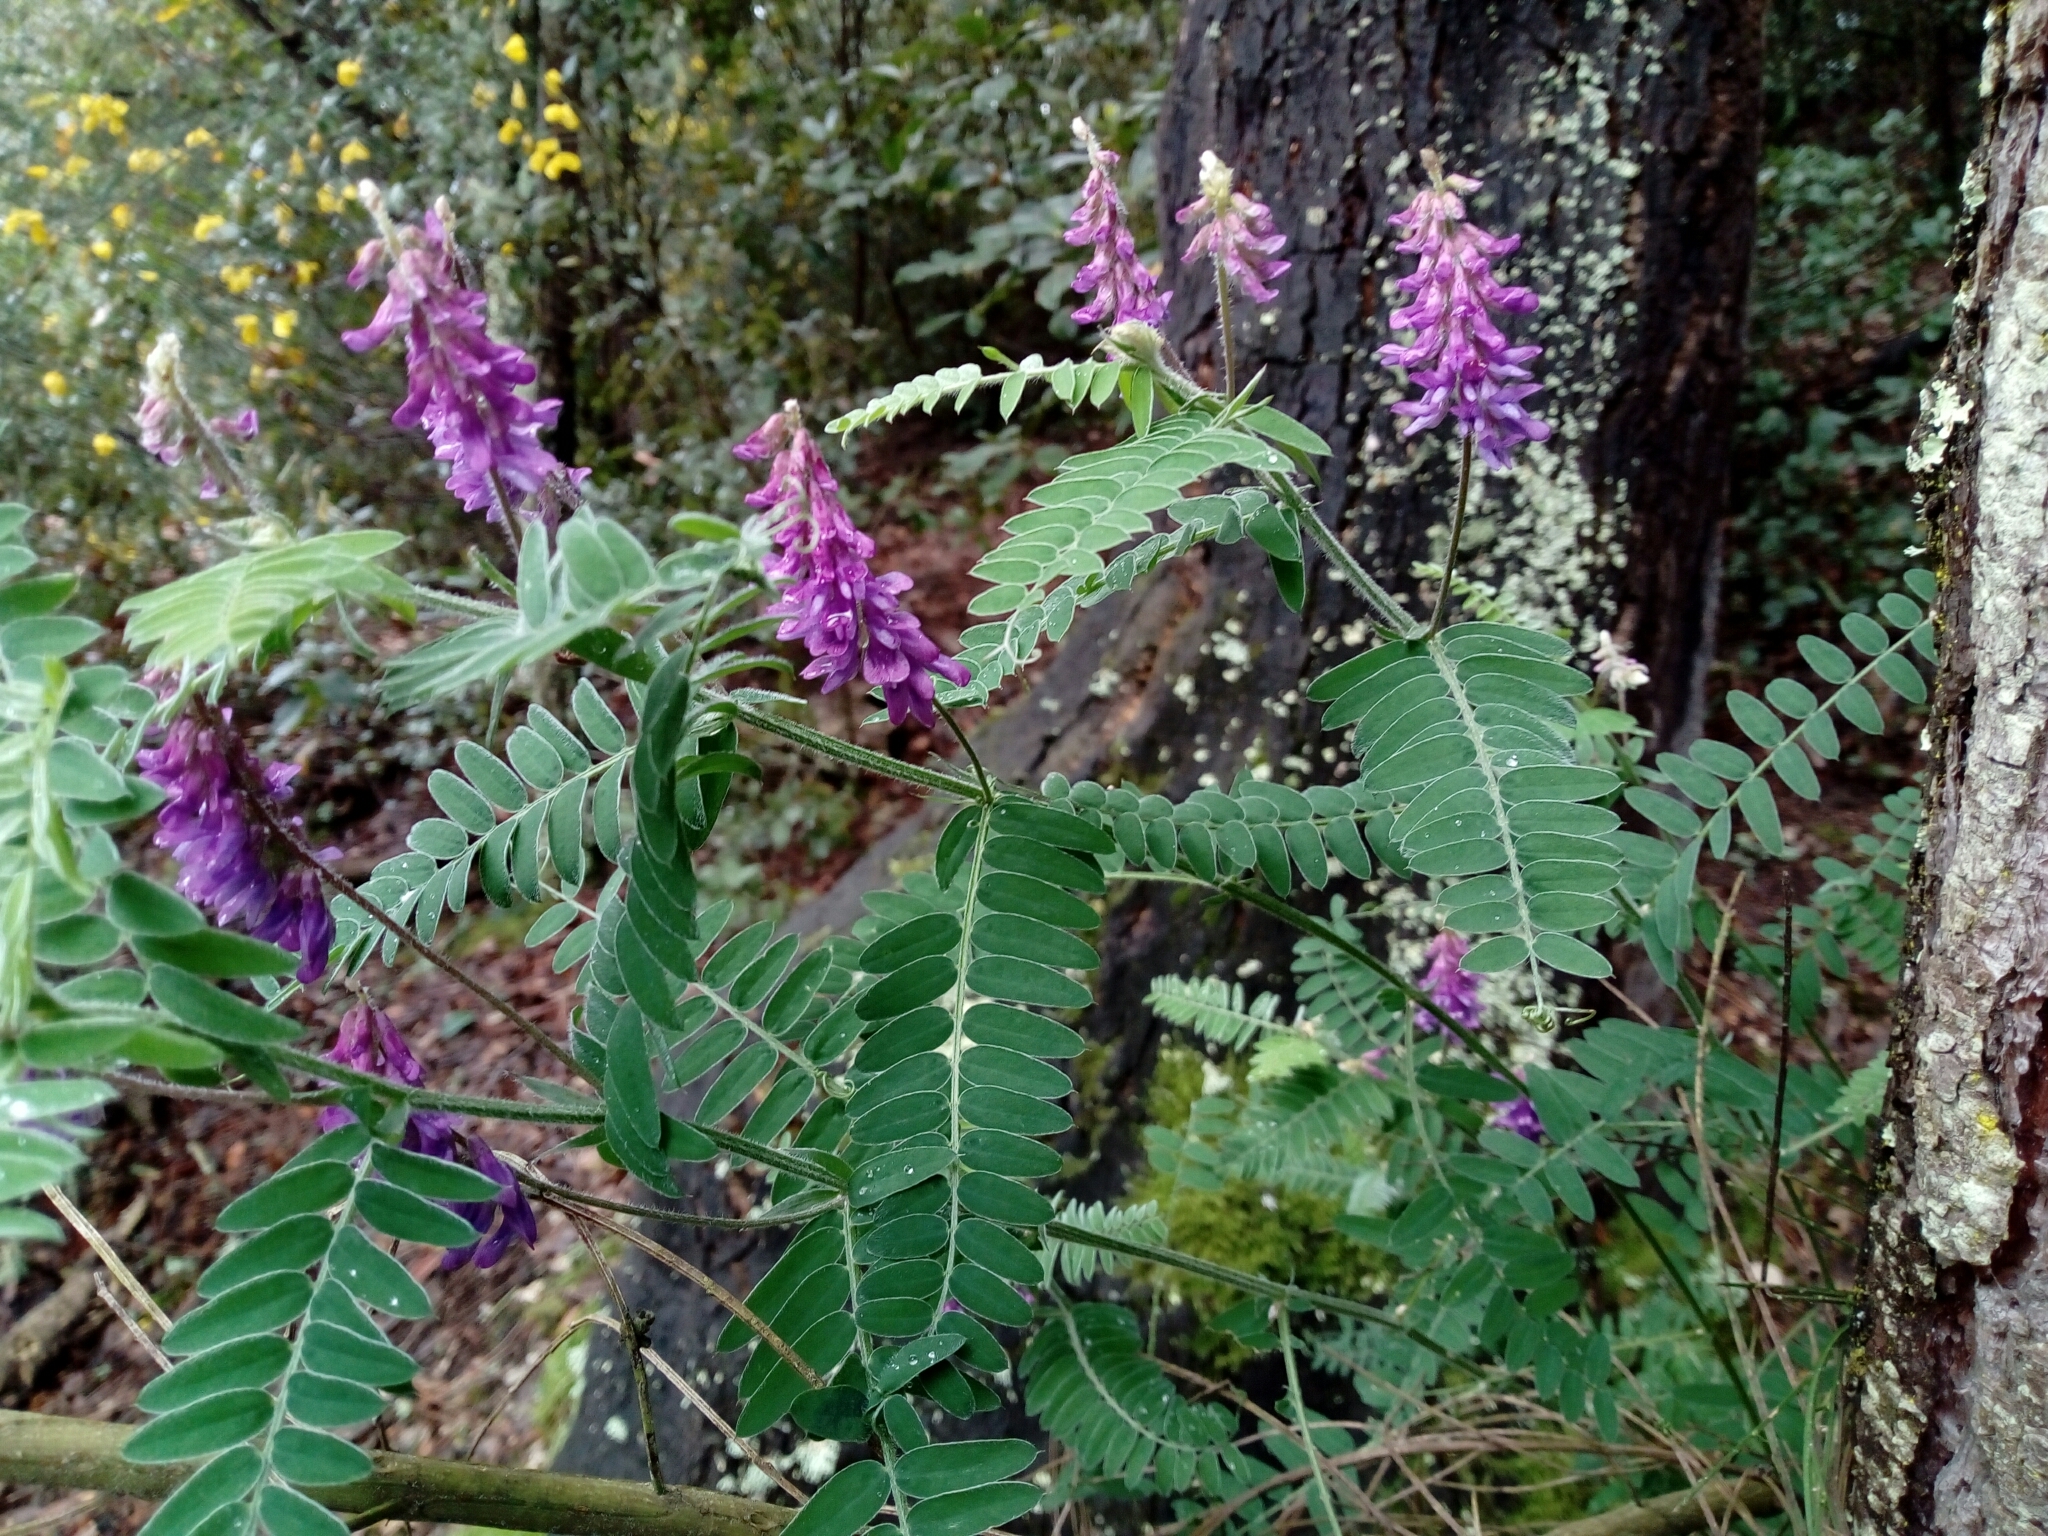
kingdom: Plantae
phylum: Tracheophyta
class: Magnoliopsida
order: Fabales
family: Fabaceae
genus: Vicia
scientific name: Vicia incana
